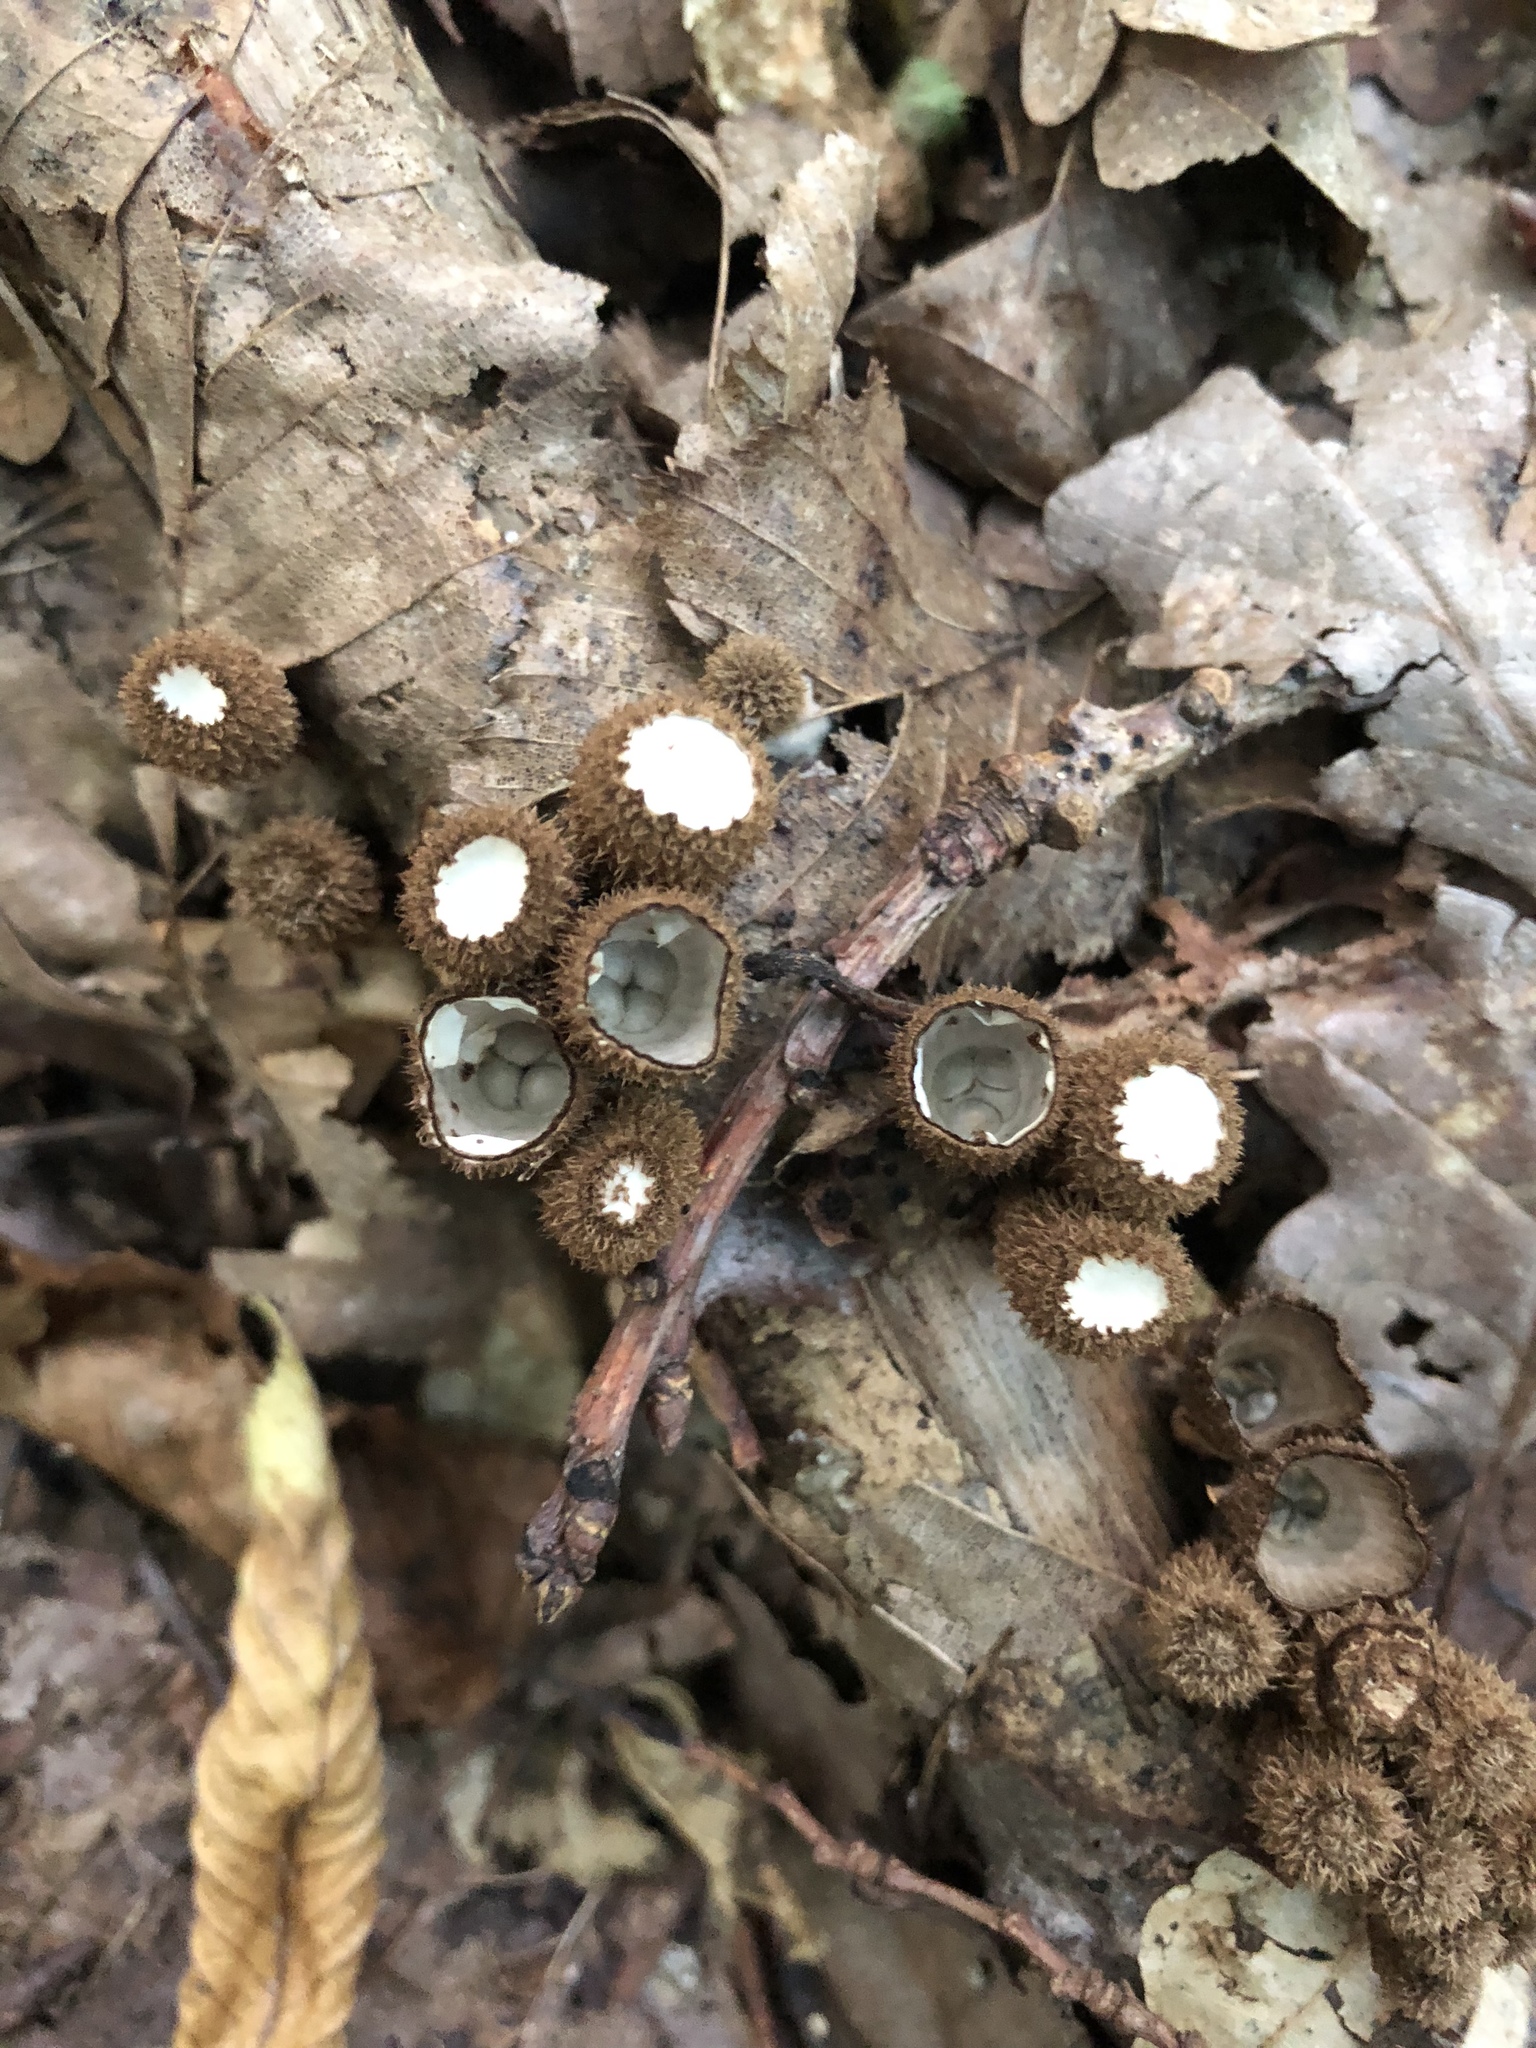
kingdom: Fungi
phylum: Basidiomycota
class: Agaricomycetes
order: Agaricales
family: Agaricaceae
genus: Cyathus
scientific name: Cyathus striatus
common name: Fluted bird's nest
